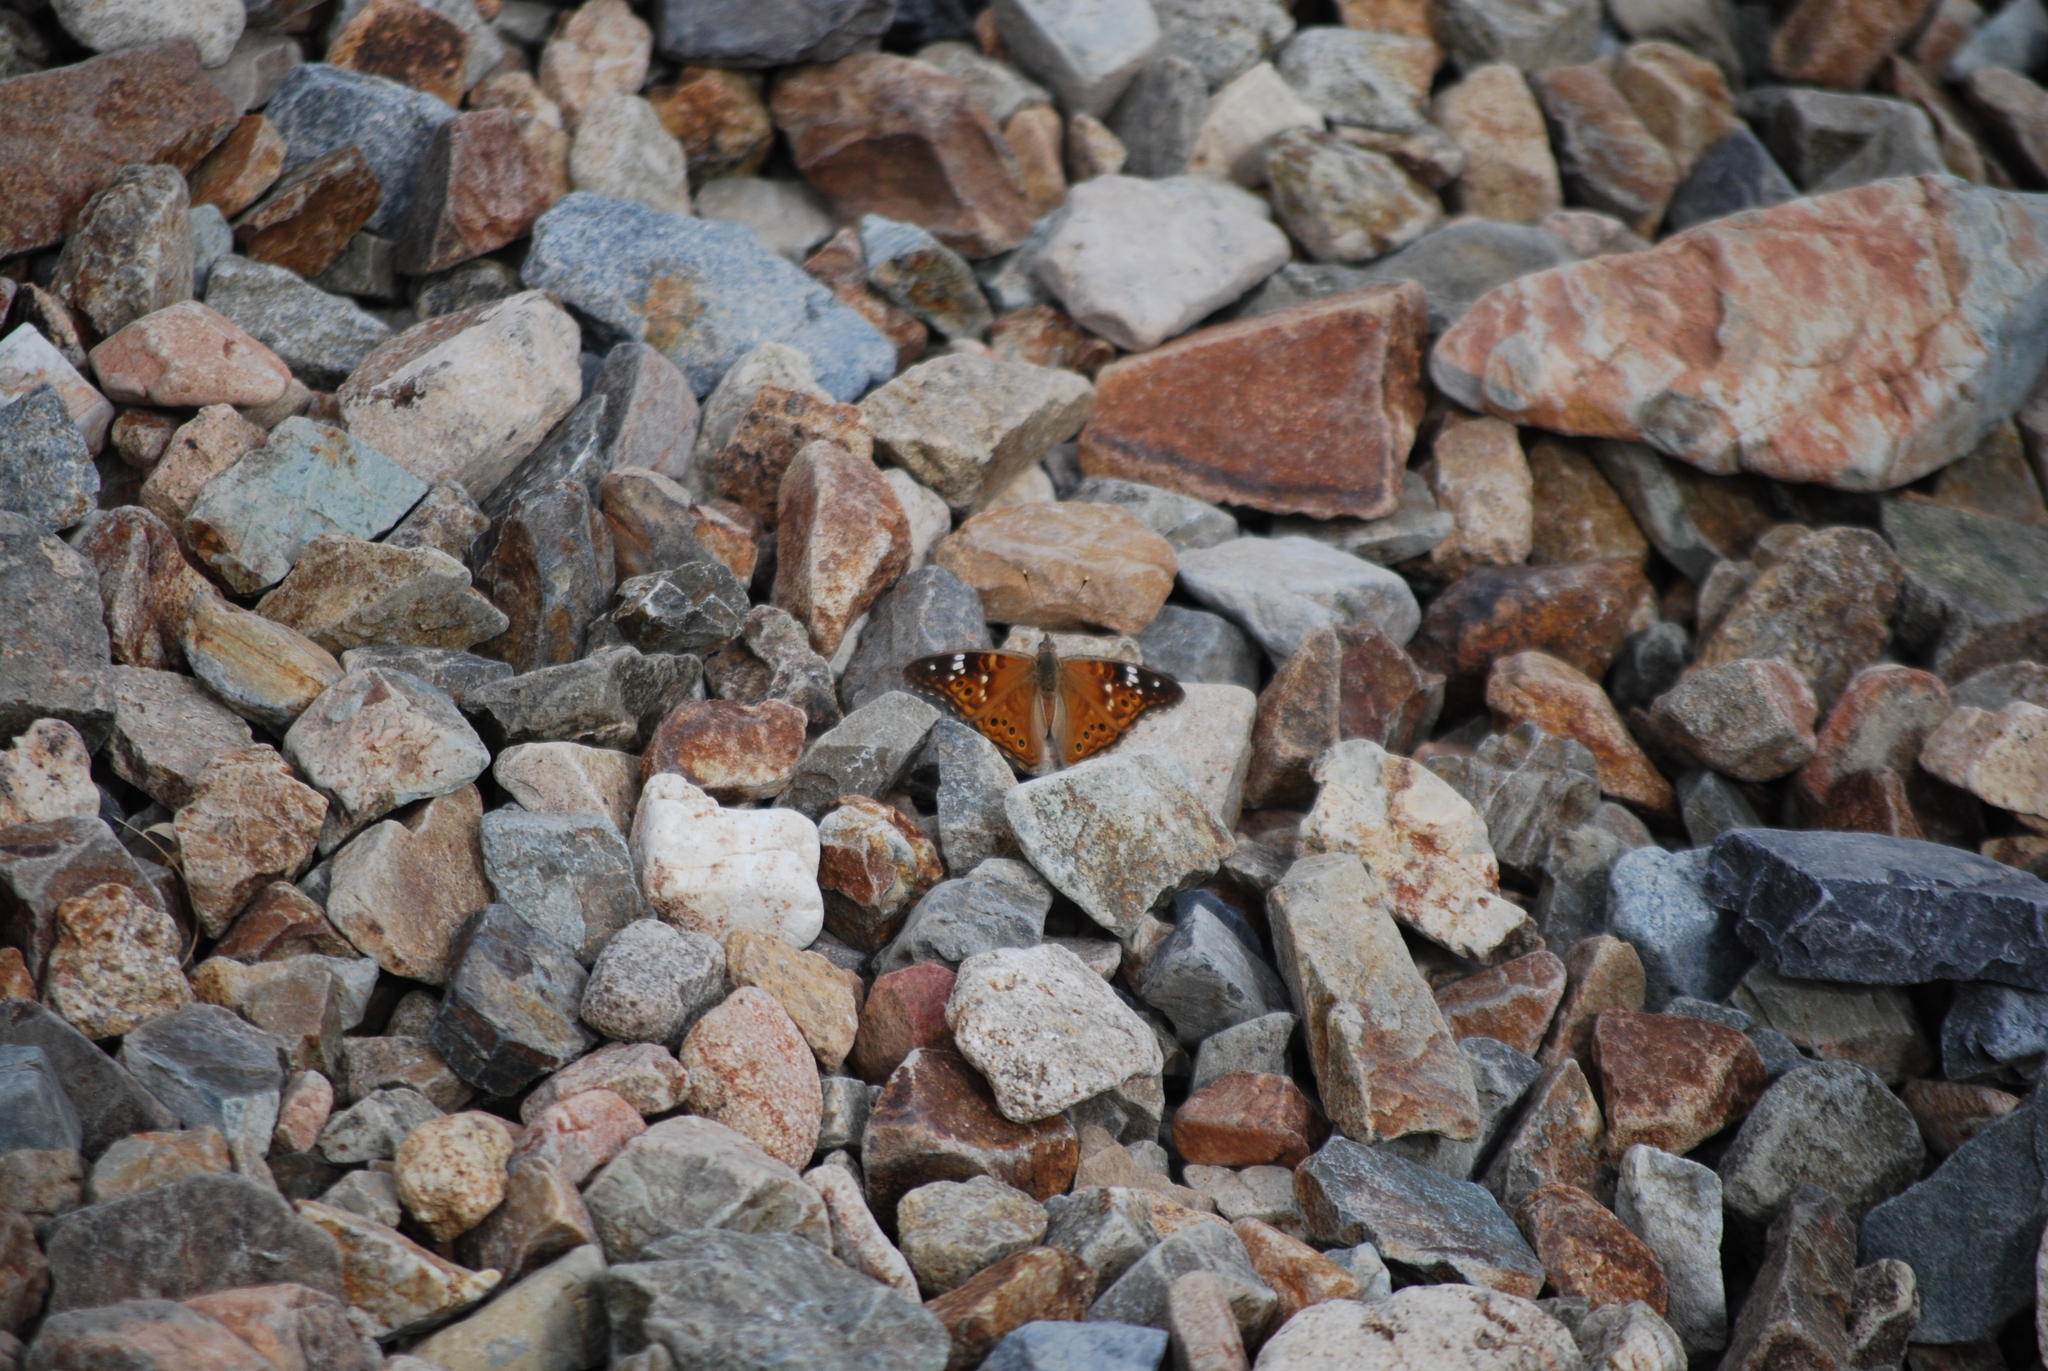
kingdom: Animalia
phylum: Arthropoda
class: Insecta
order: Lepidoptera
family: Nymphalidae
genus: Asterocampa
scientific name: Asterocampa leilia
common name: Empress leilia
